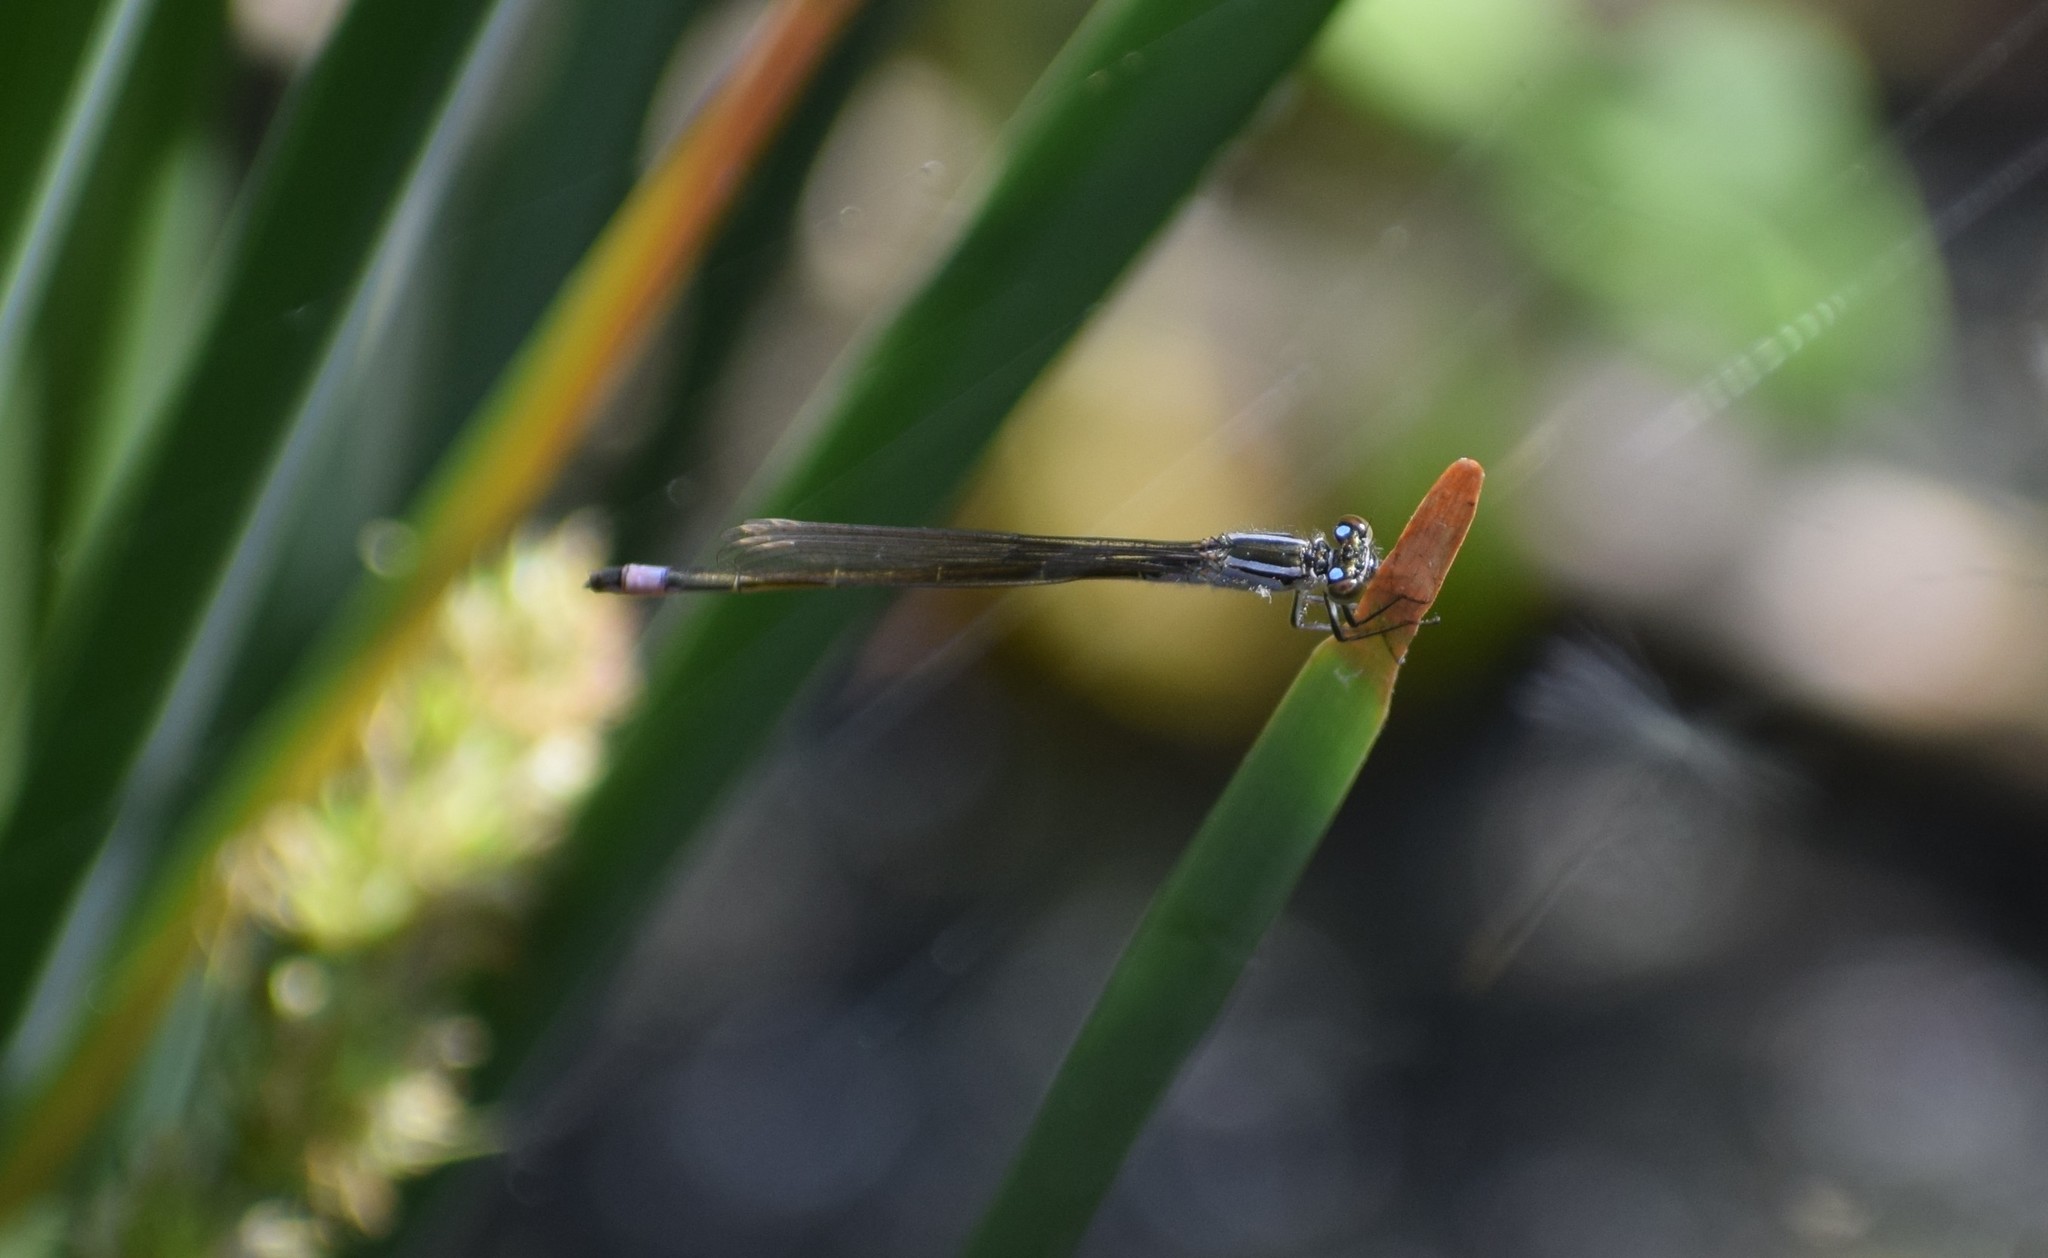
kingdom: Animalia
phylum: Arthropoda
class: Insecta
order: Odonata
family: Coenagrionidae
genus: Ischnura
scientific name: Ischnura elegans
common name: Blue-tailed damselfly
